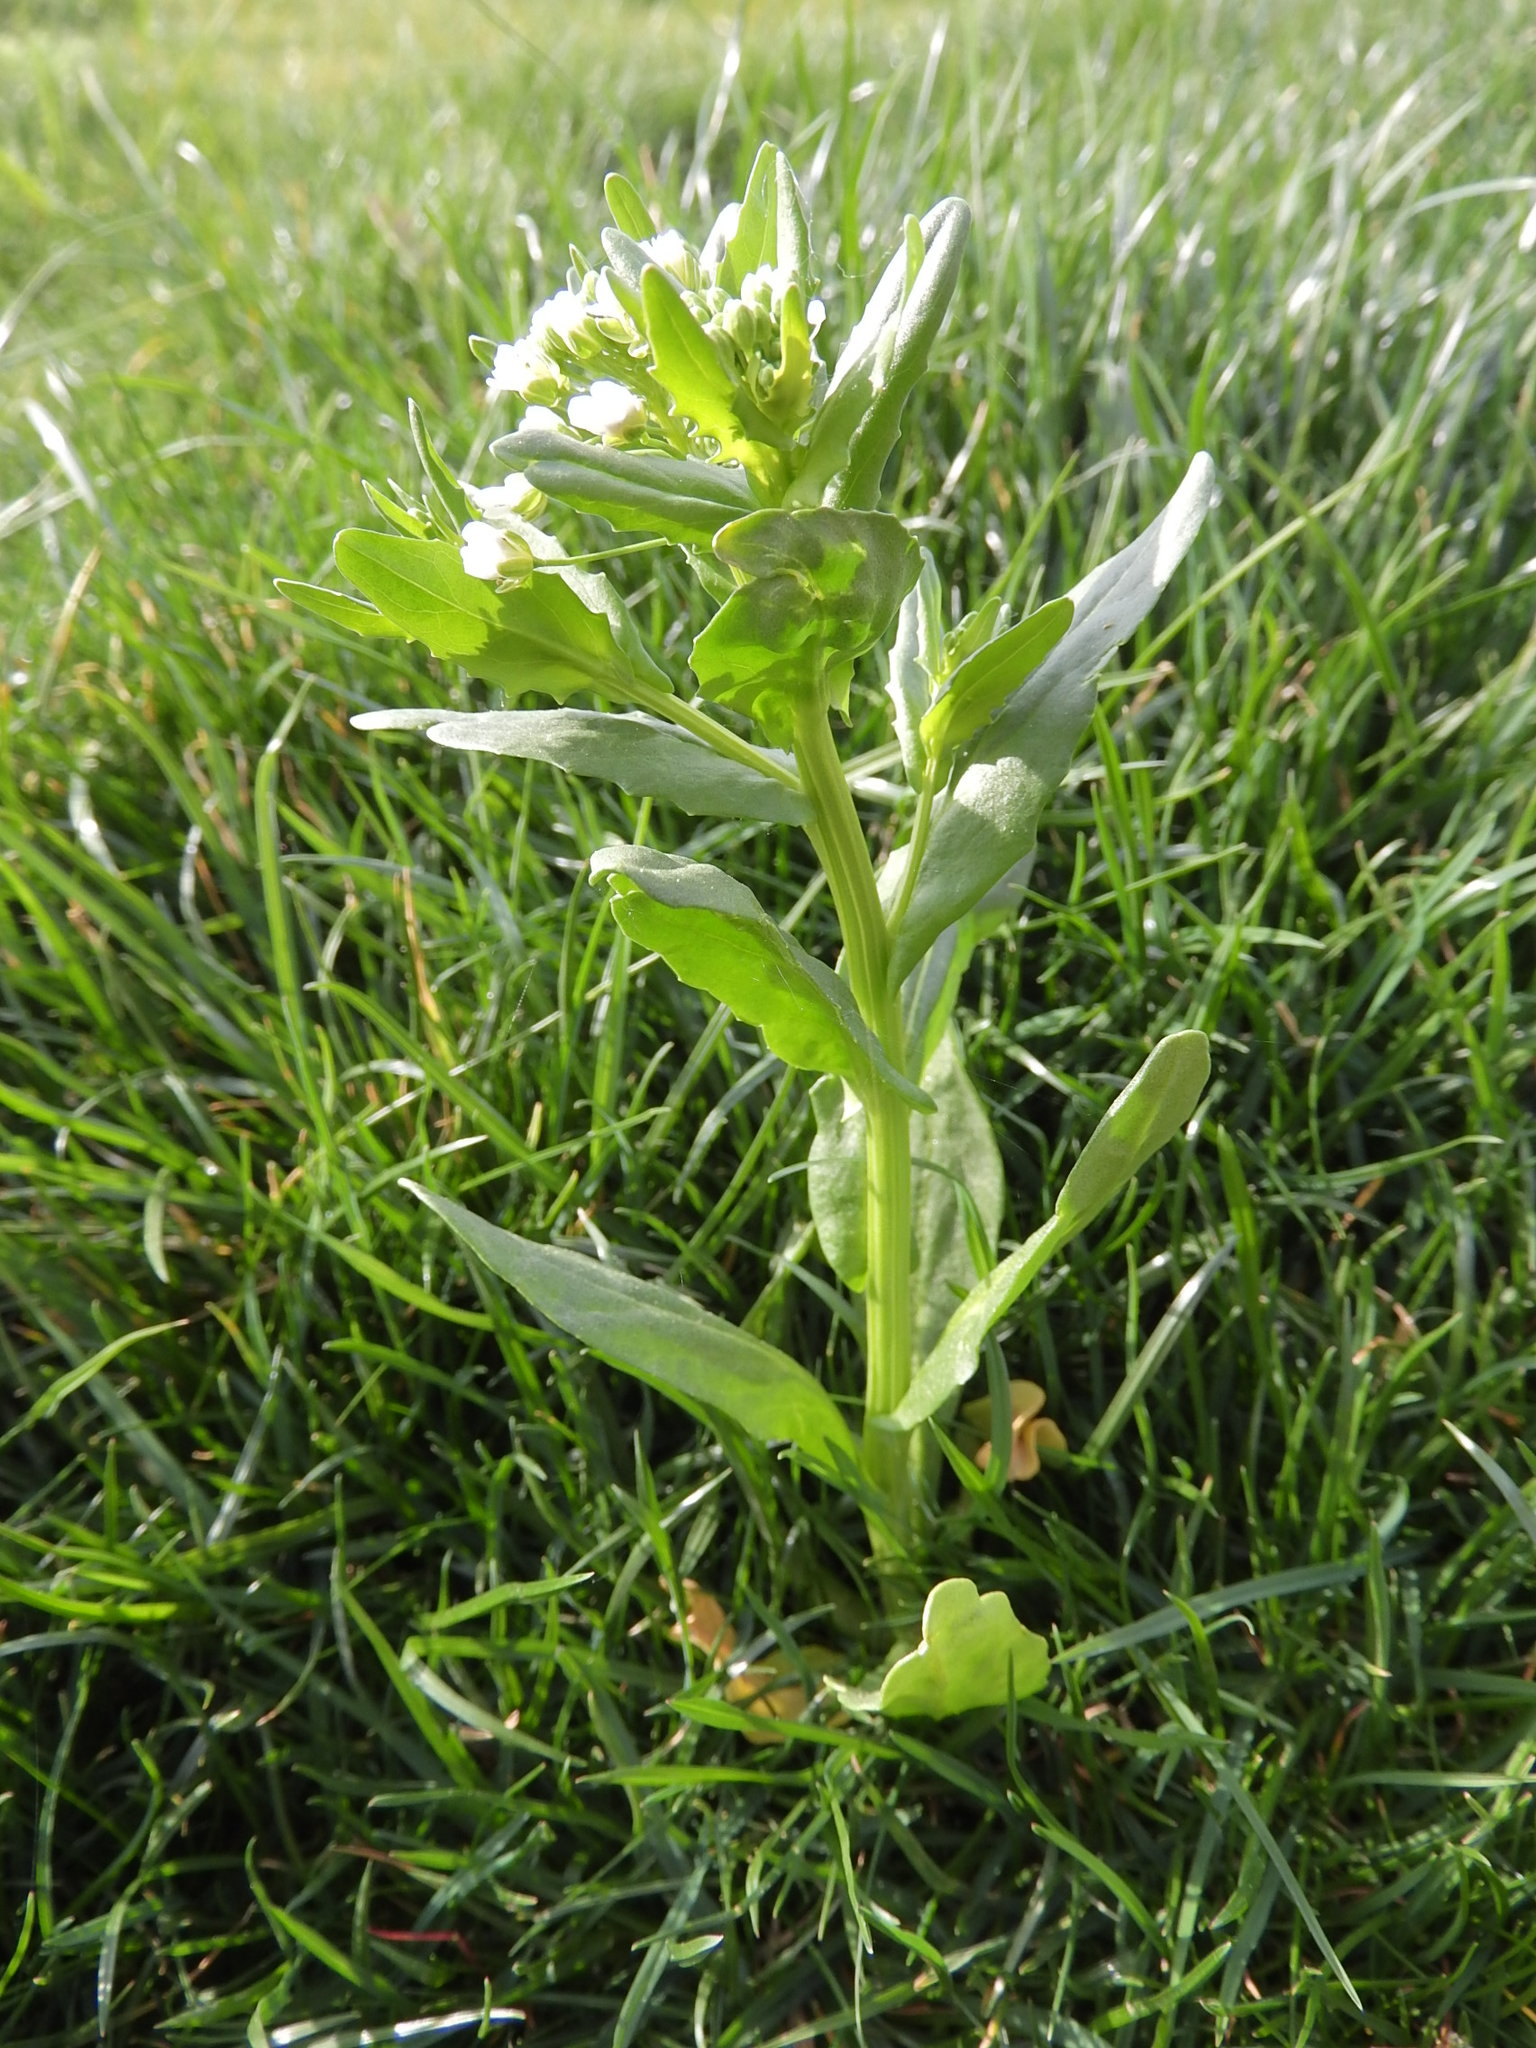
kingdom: Plantae
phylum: Tracheophyta
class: Magnoliopsida
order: Brassicales
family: Brassicaceae
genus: Thlaspi
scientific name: Thlaspi arvense
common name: Field pennycress
